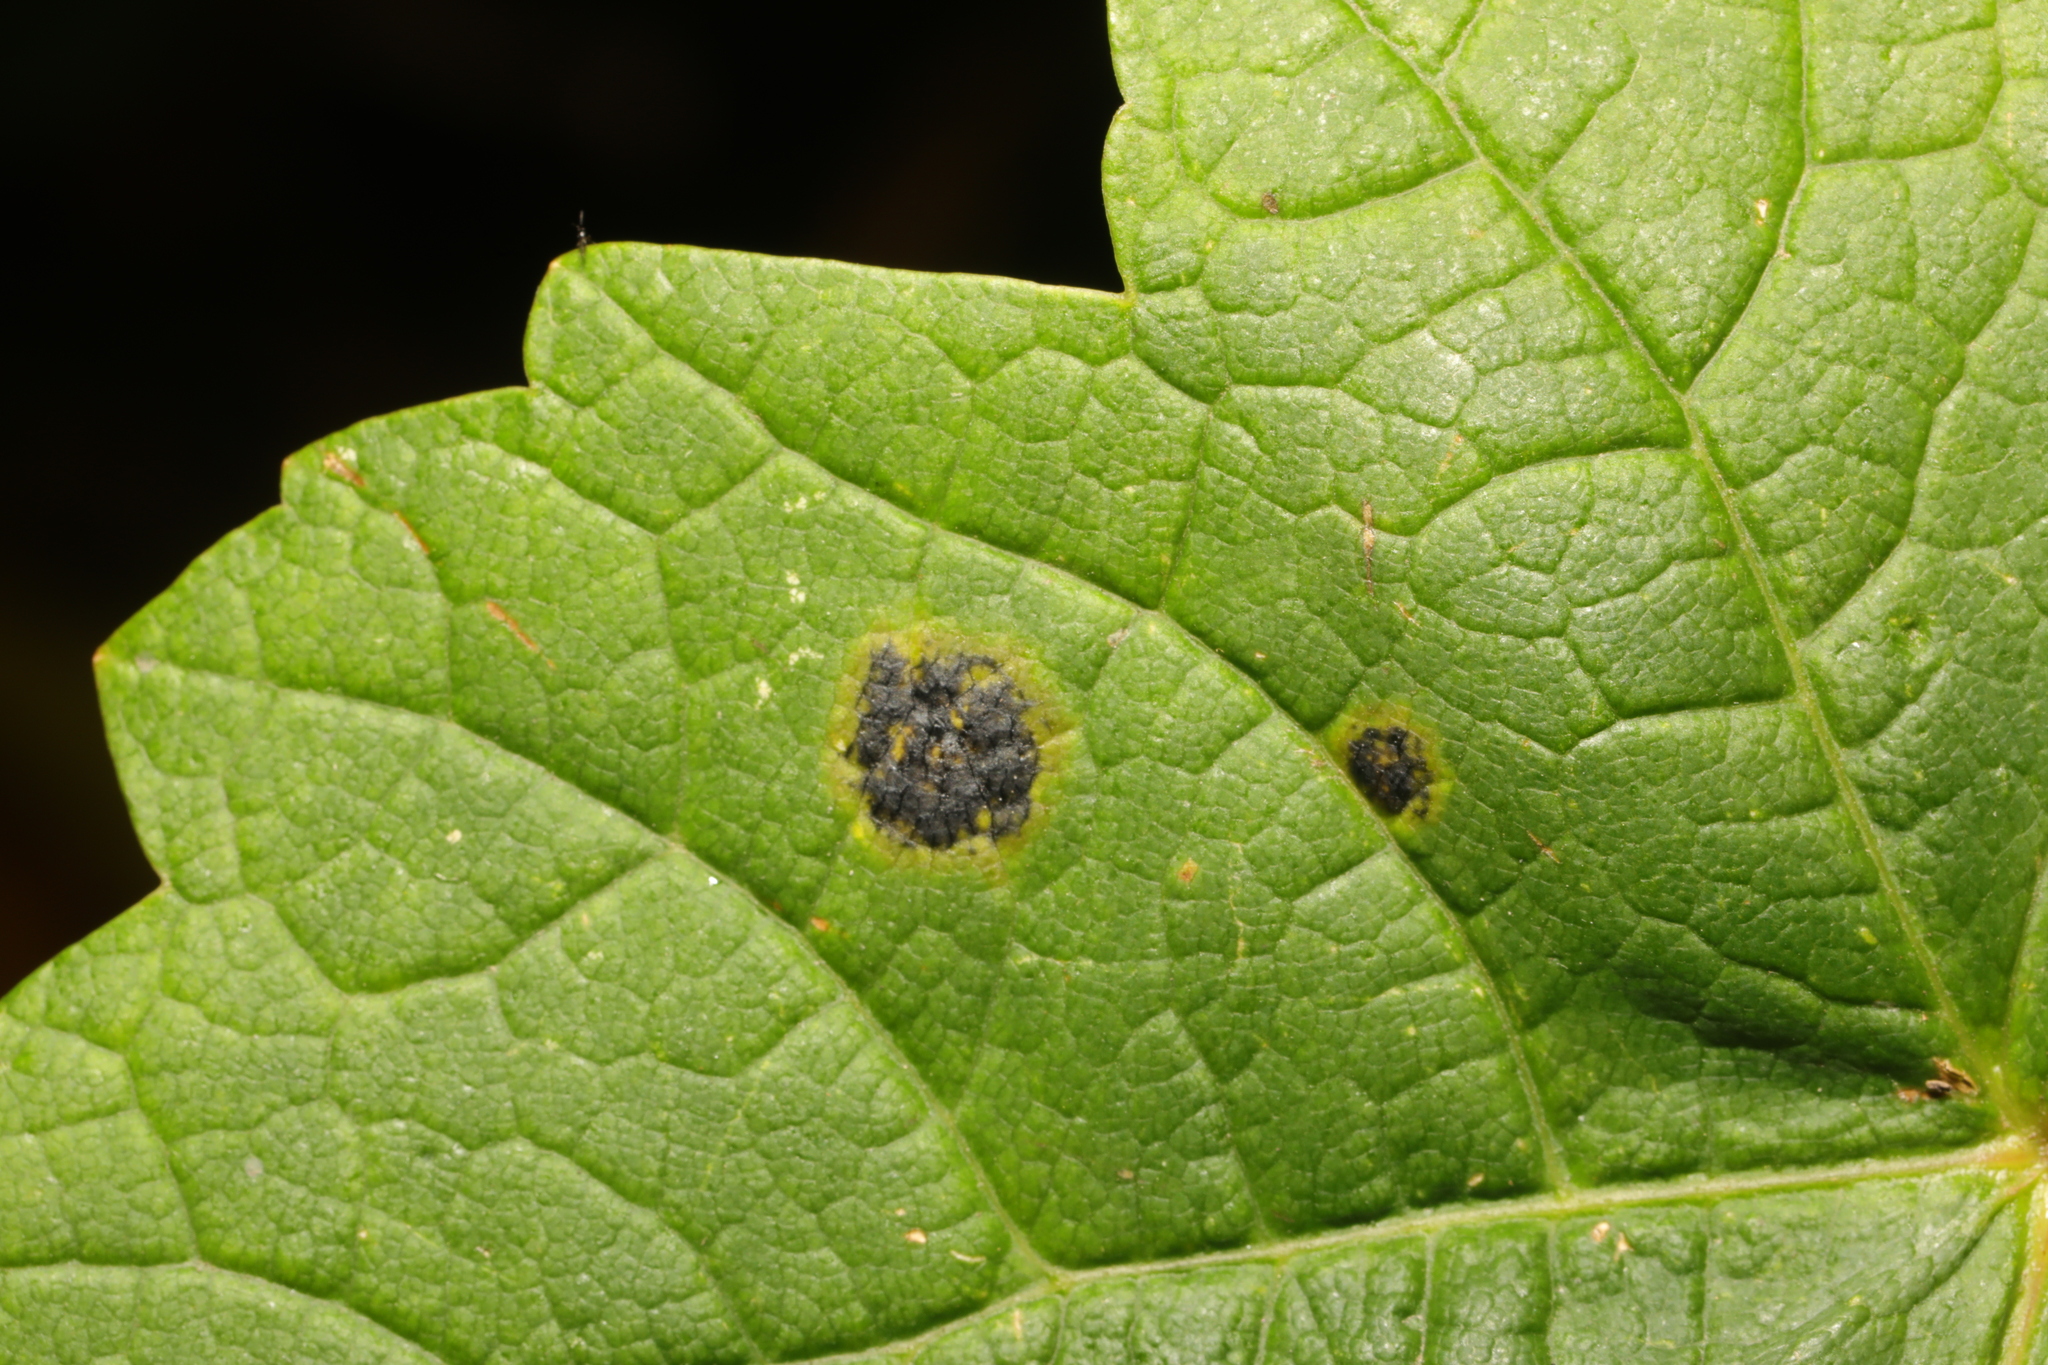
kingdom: Fungi
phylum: Ascomycota
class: Leotiomycetes
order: Rhytismatales
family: Rhytismataceae
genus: Rhytisma
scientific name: Rhytisma acerinum
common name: European tar spot
